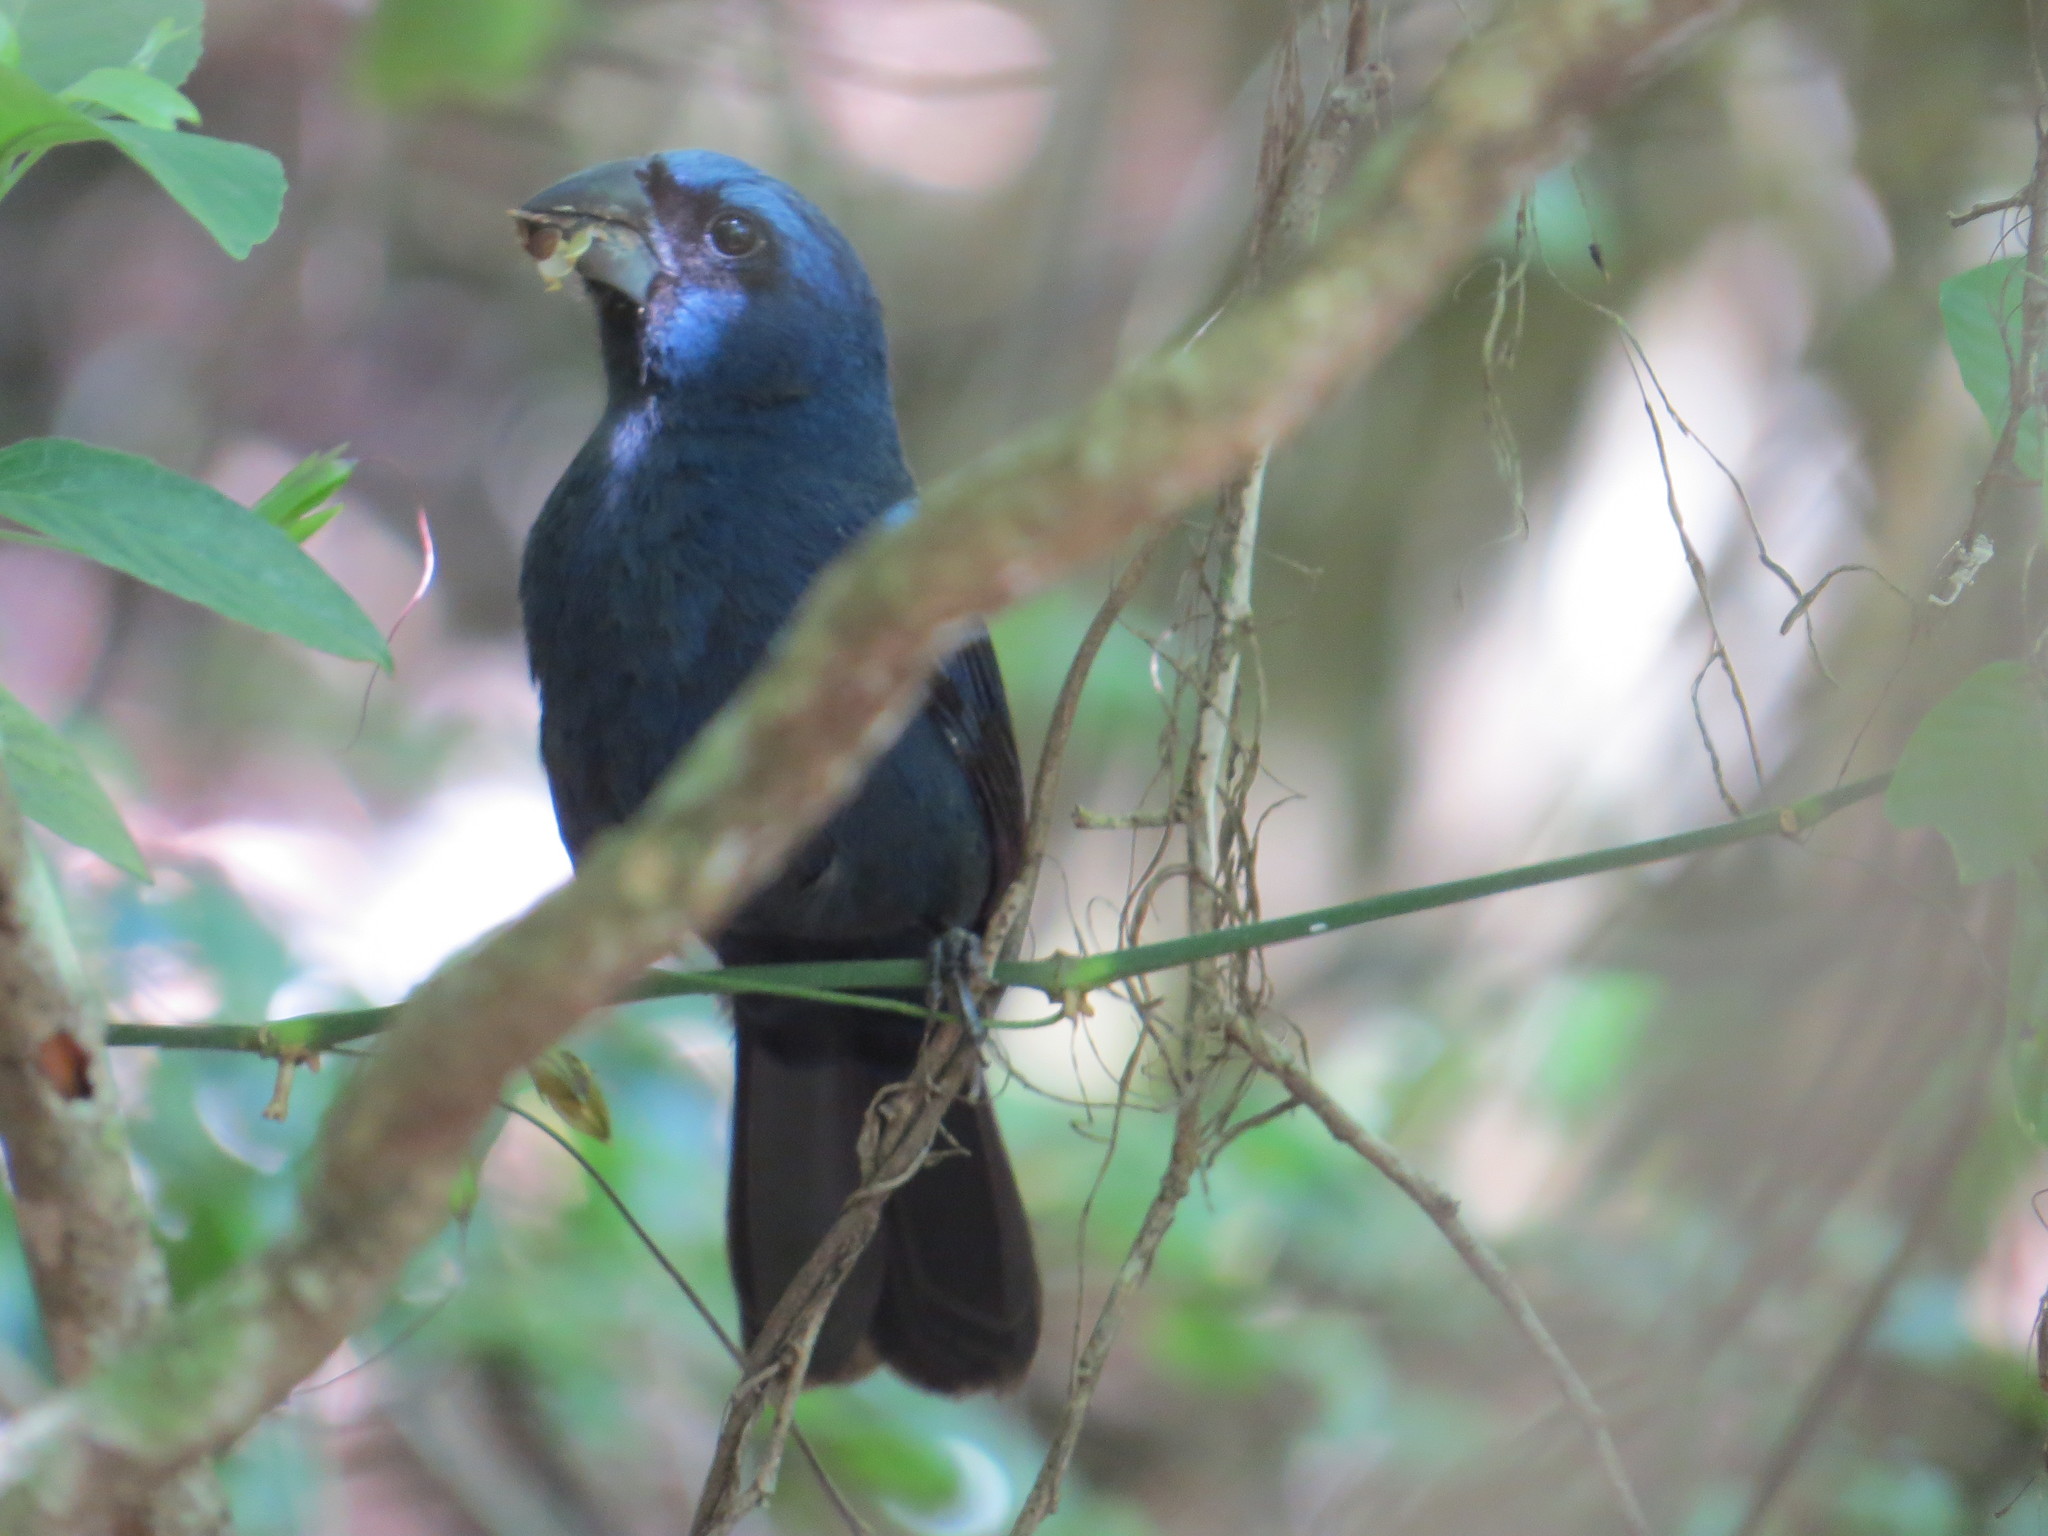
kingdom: Animalia
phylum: Chordata
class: Aves
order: Passeriformes
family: Cardinalidae
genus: Cyanoloxia
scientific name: Cyanoloxia brissonii
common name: Ultramarine grosbeak
